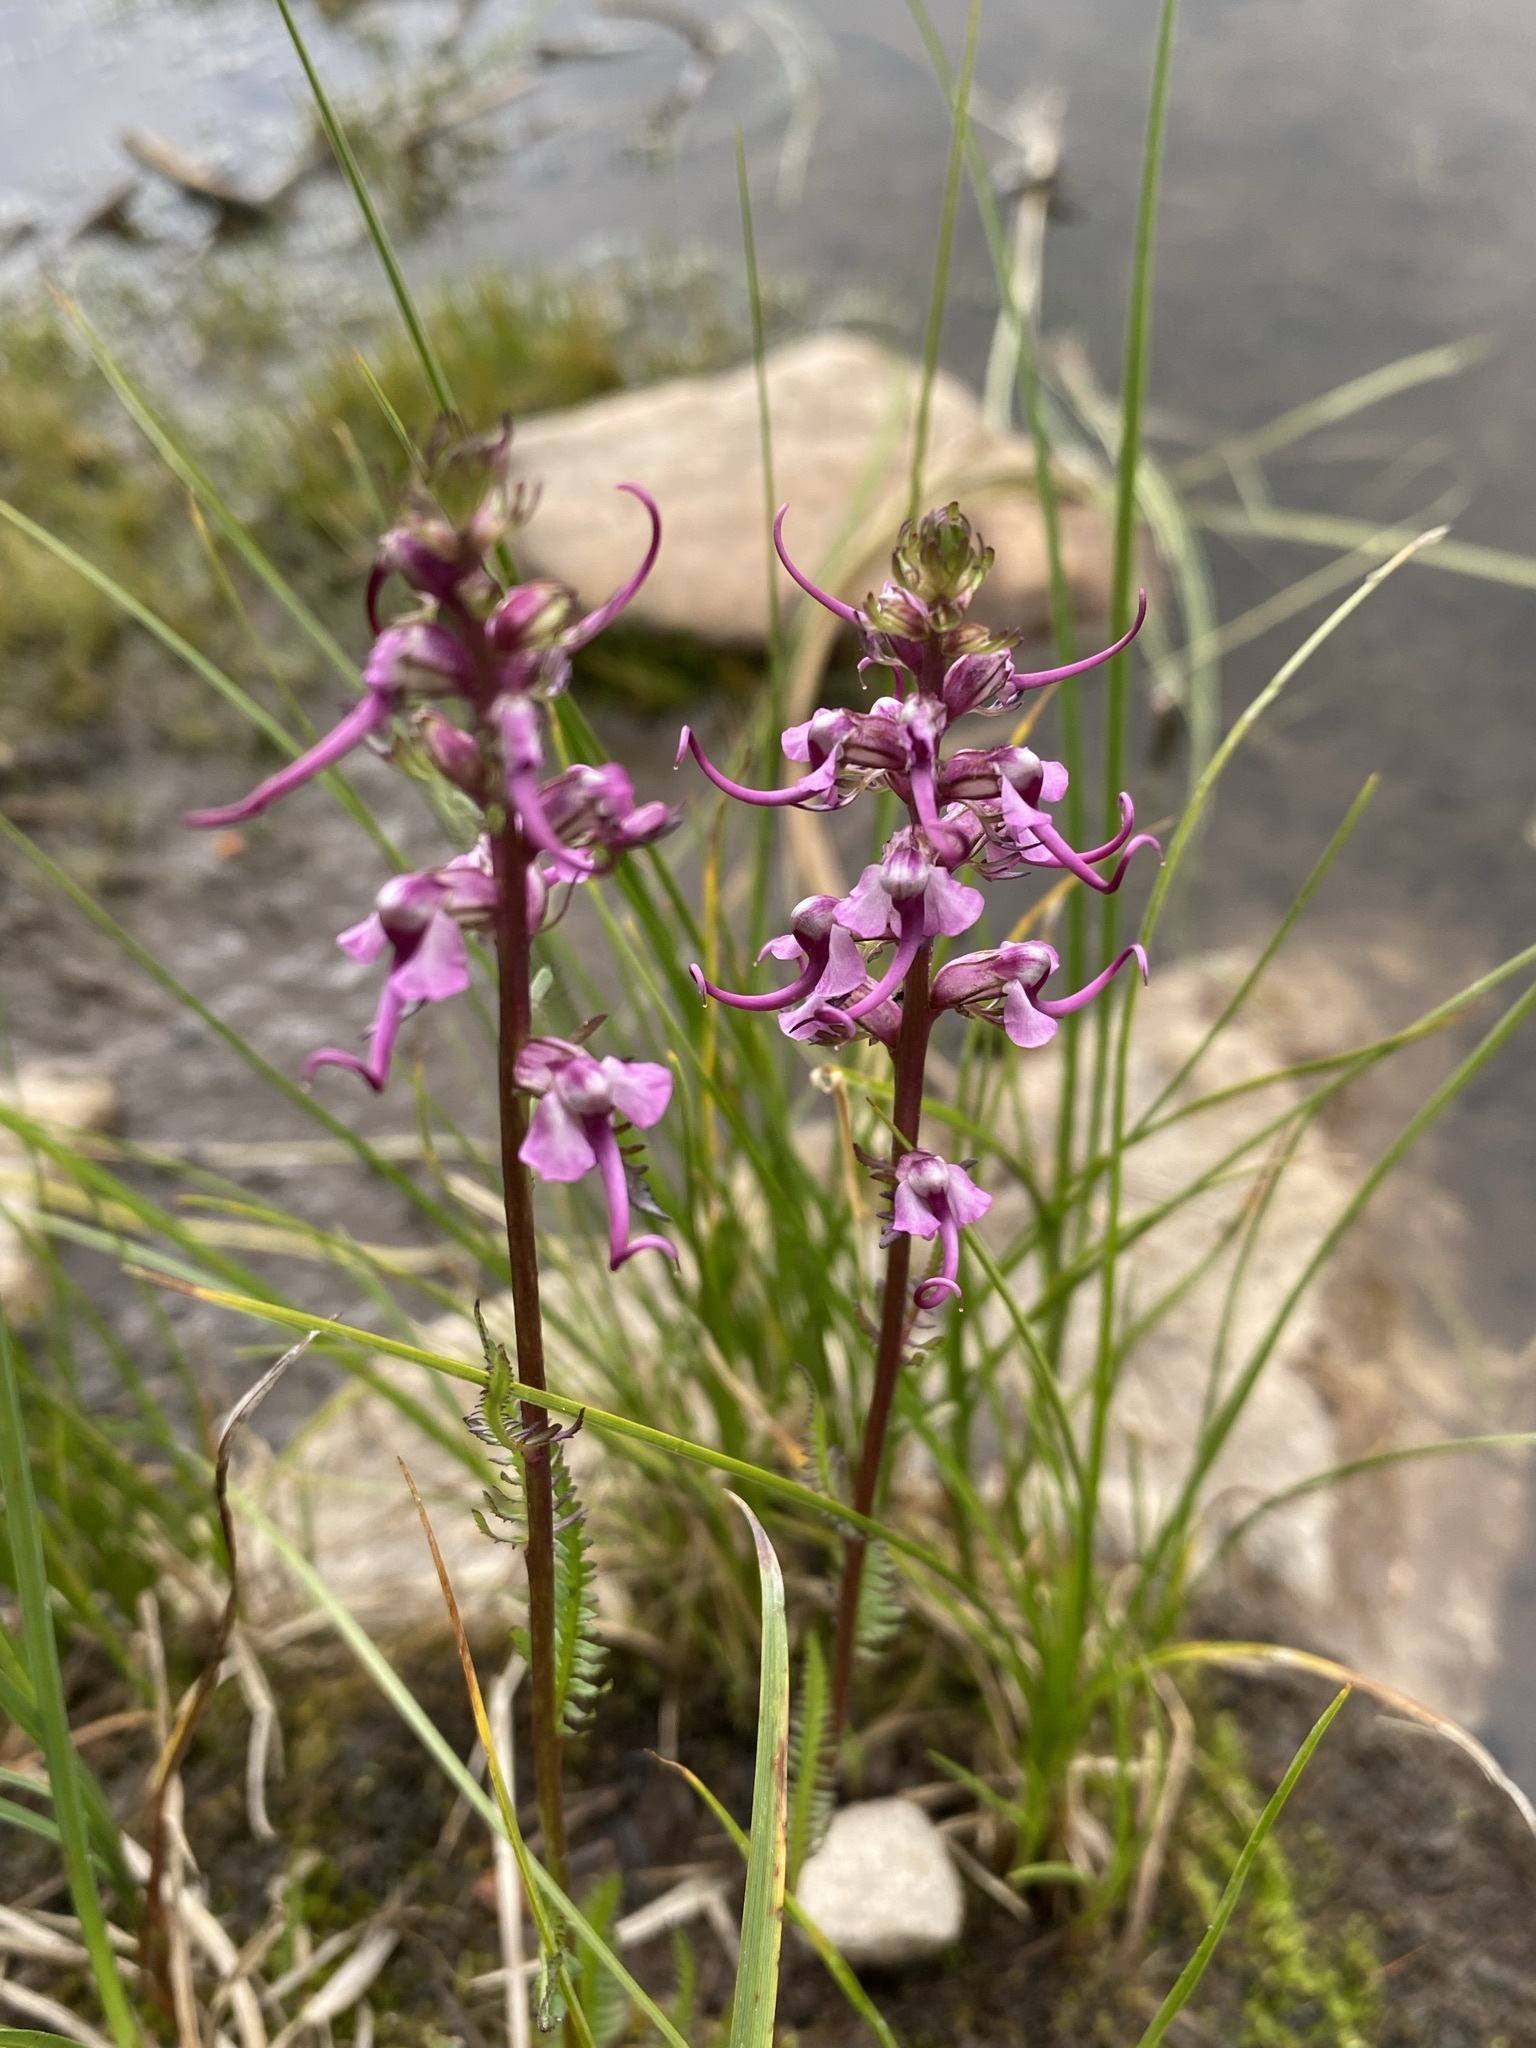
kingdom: Plantae
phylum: Tracheophyta
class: Magnoliopsida
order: Lamiales
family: Orobanchaceae
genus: Pedicularis
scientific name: Pedicularis groenlandica
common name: Elephant's-head
